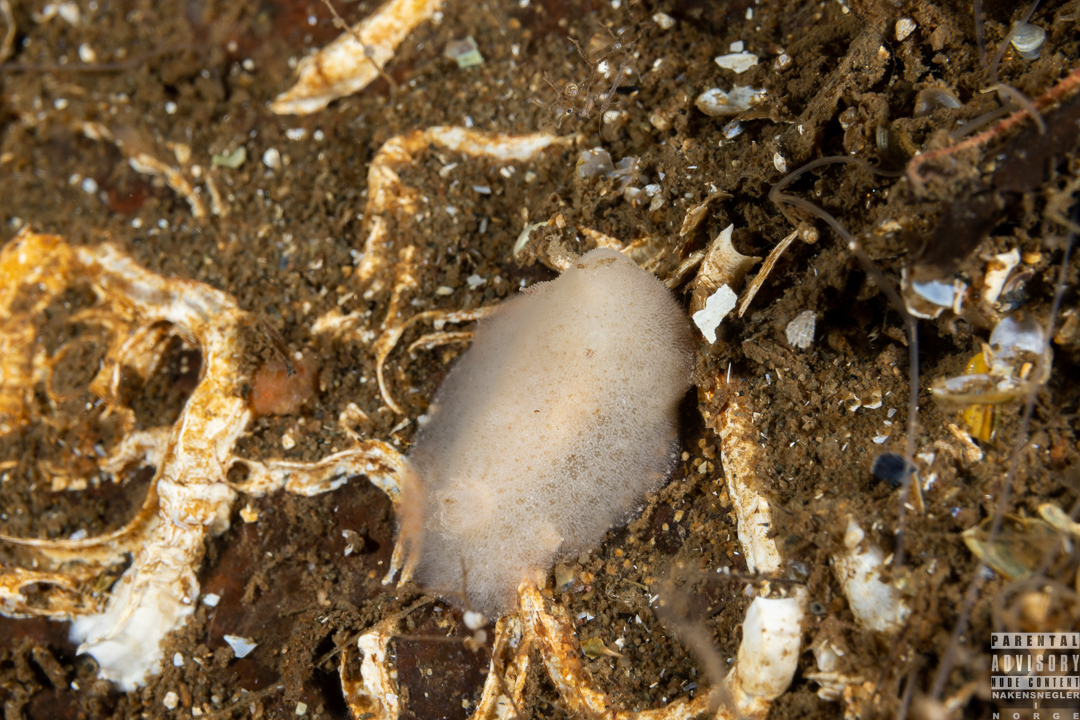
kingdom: Animalia
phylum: Mollusca
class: Gastropoda
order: Nudibranchia
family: Discodorididae
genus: Jorunna
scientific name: Jorunna tomentosa
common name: Grey sea slug
